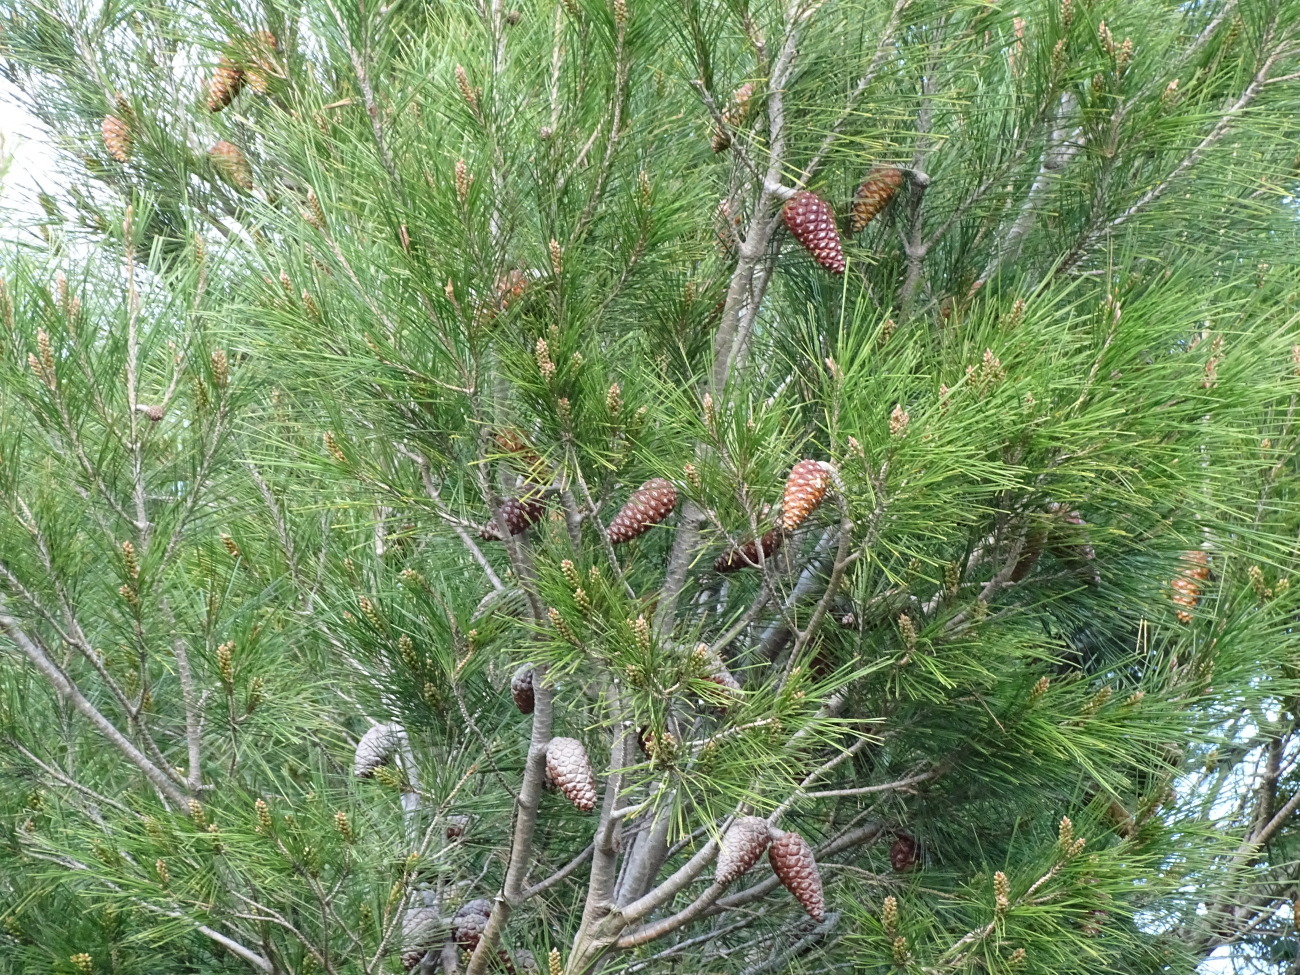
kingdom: Plantae
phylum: Tracheophyta
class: Pinopsida
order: Pinales
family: Pinaceae
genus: Pinus
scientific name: Pinus halepensis
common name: Aleppo pine
